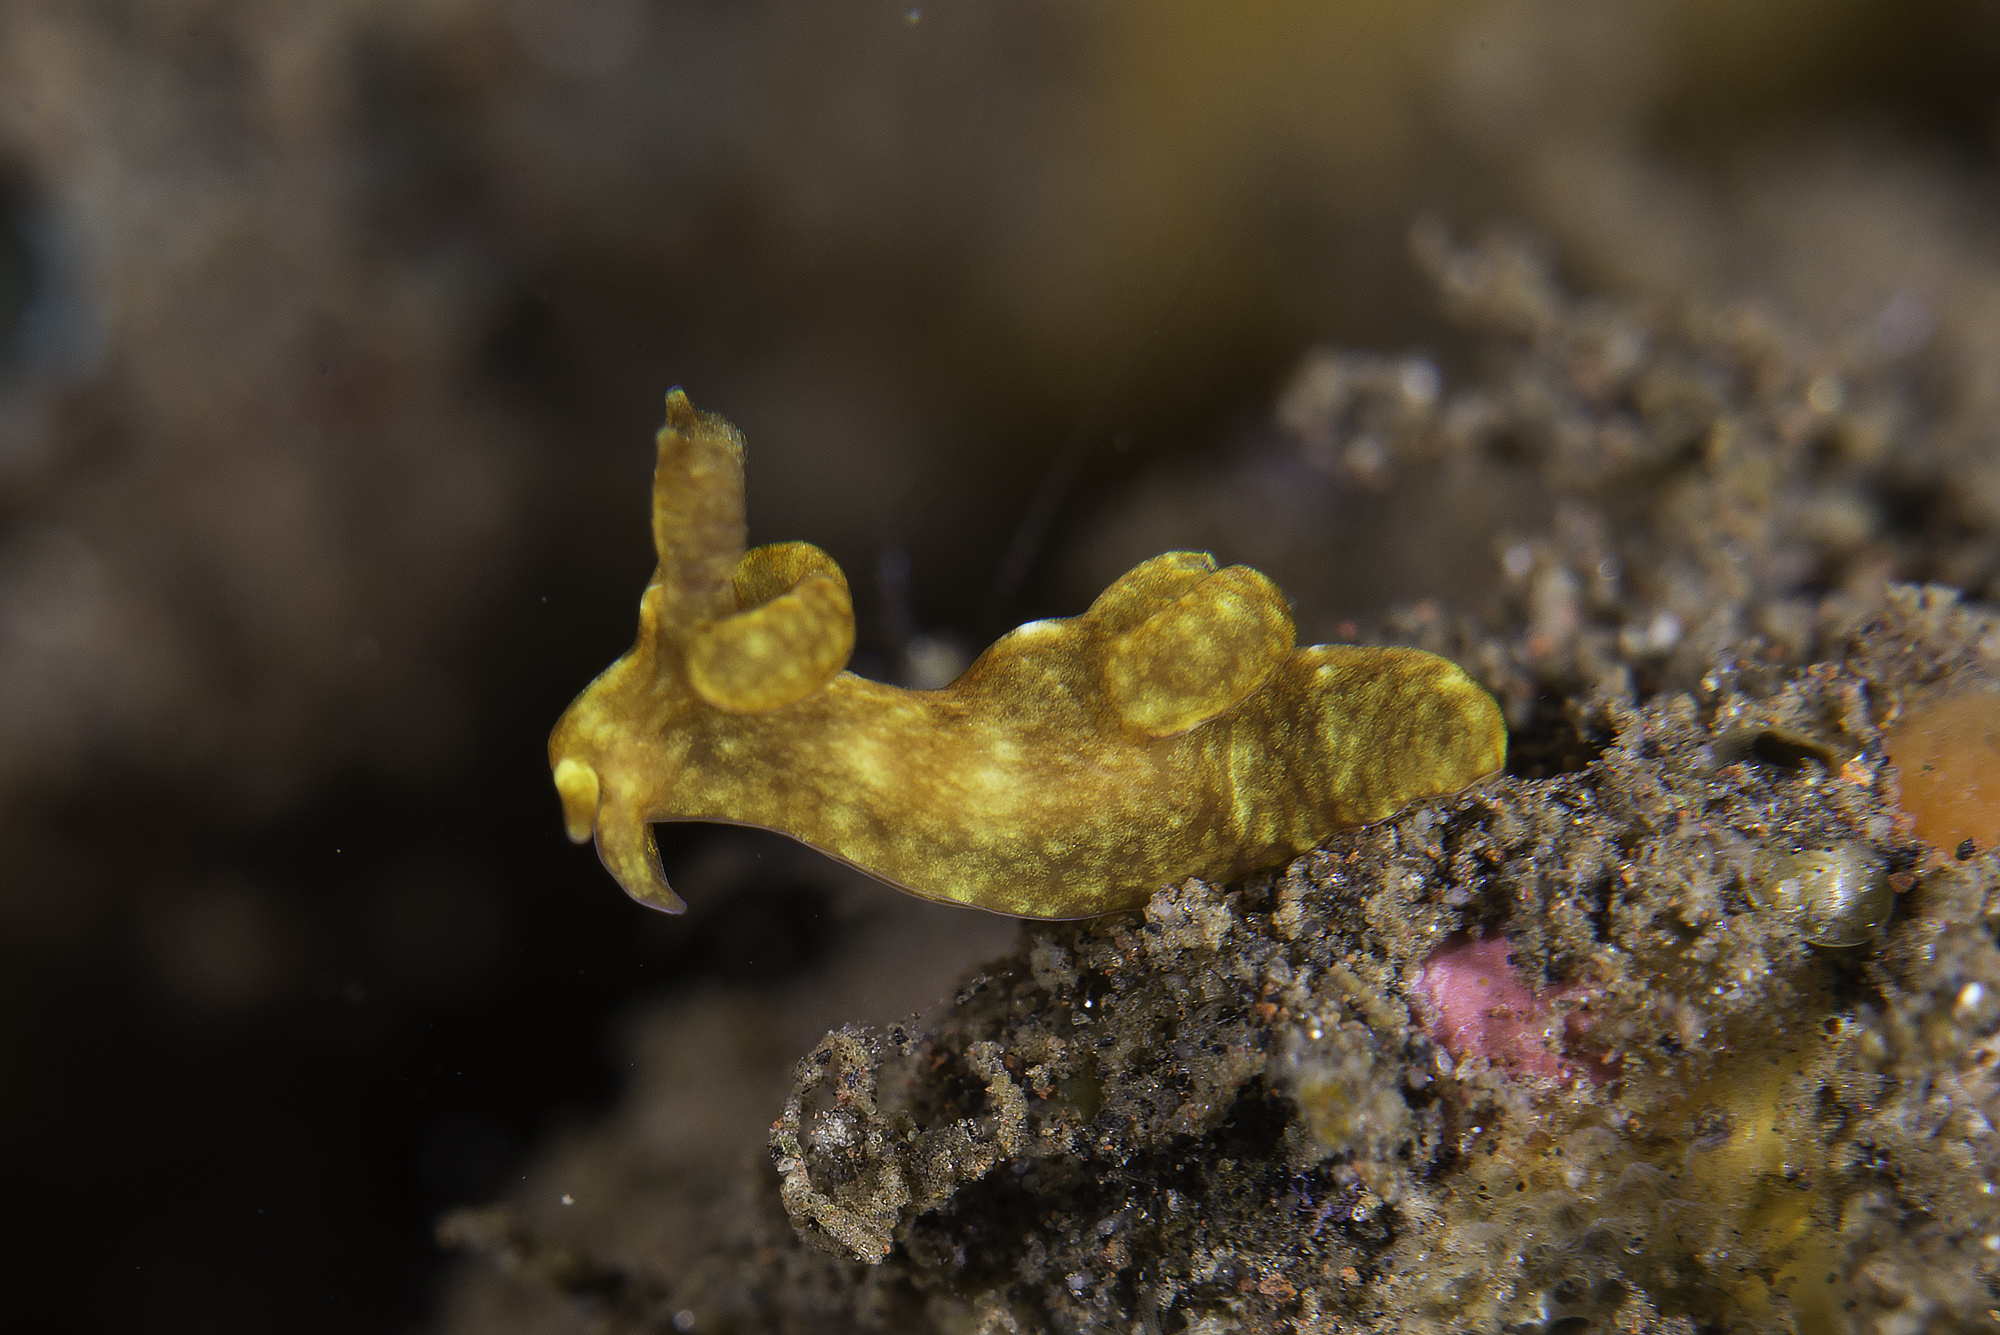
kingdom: Animalia
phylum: Mollusca
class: Gastropoda
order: Nudibranchia
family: Goniodorididae
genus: Trapania
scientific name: Trapania reticulata
